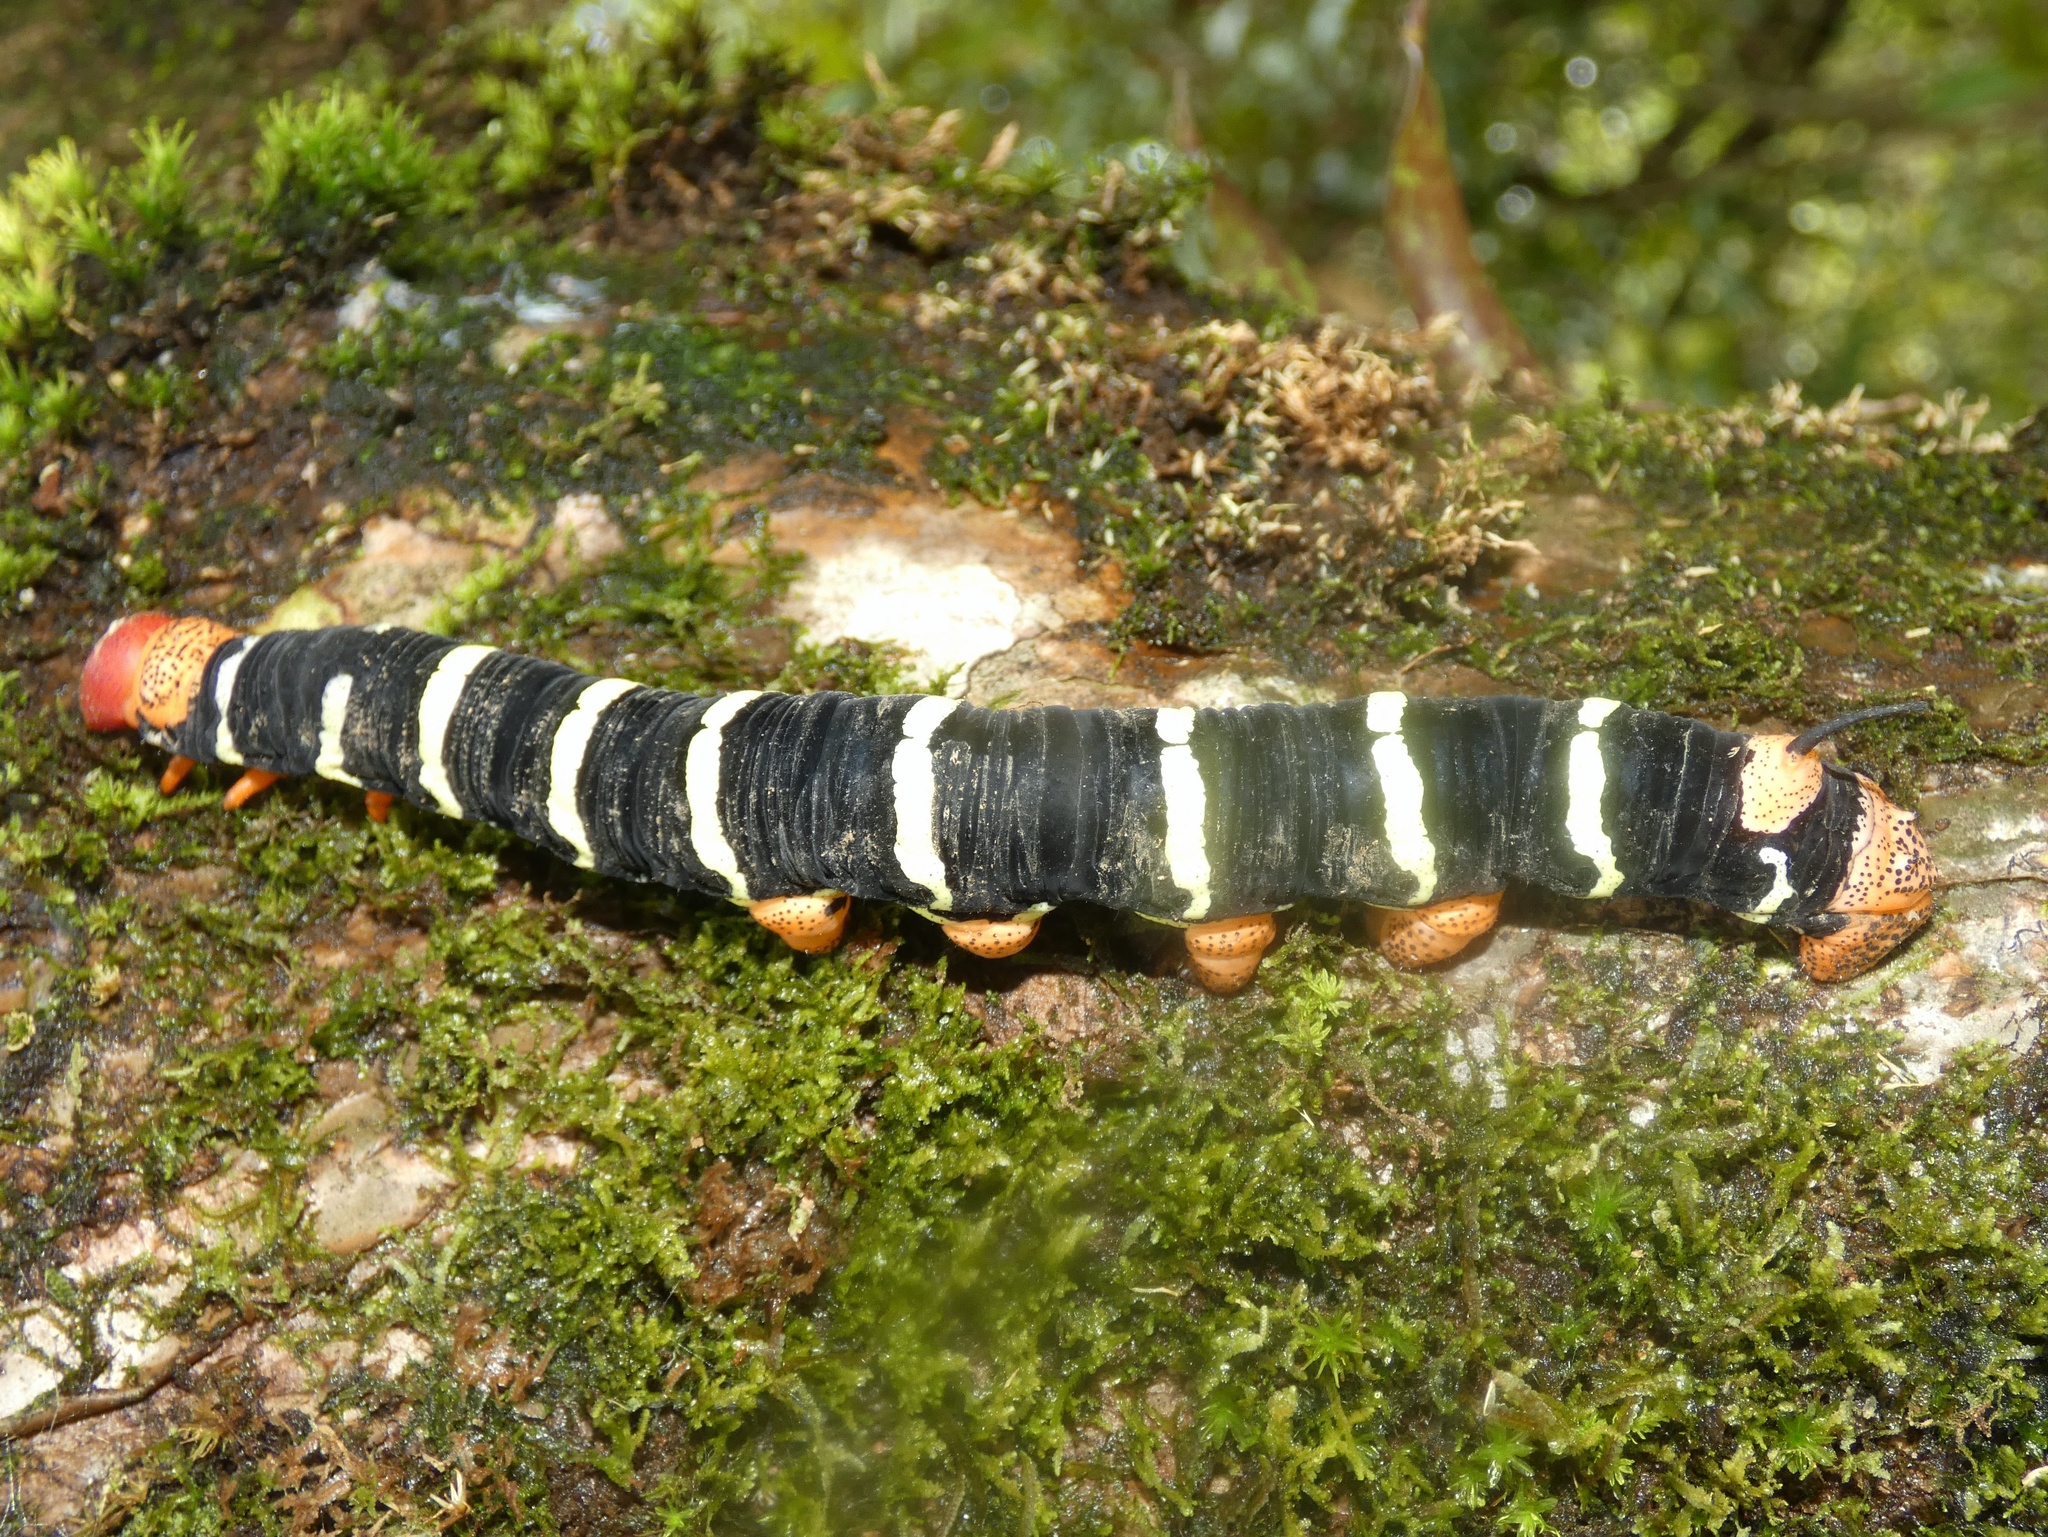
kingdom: Animalia
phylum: Arthropoda
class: Insecta
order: Lepidoptera
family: Sphingidae
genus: Pseudosphinx
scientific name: Pseudosphinx tetrio
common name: Tetrio sphinx
